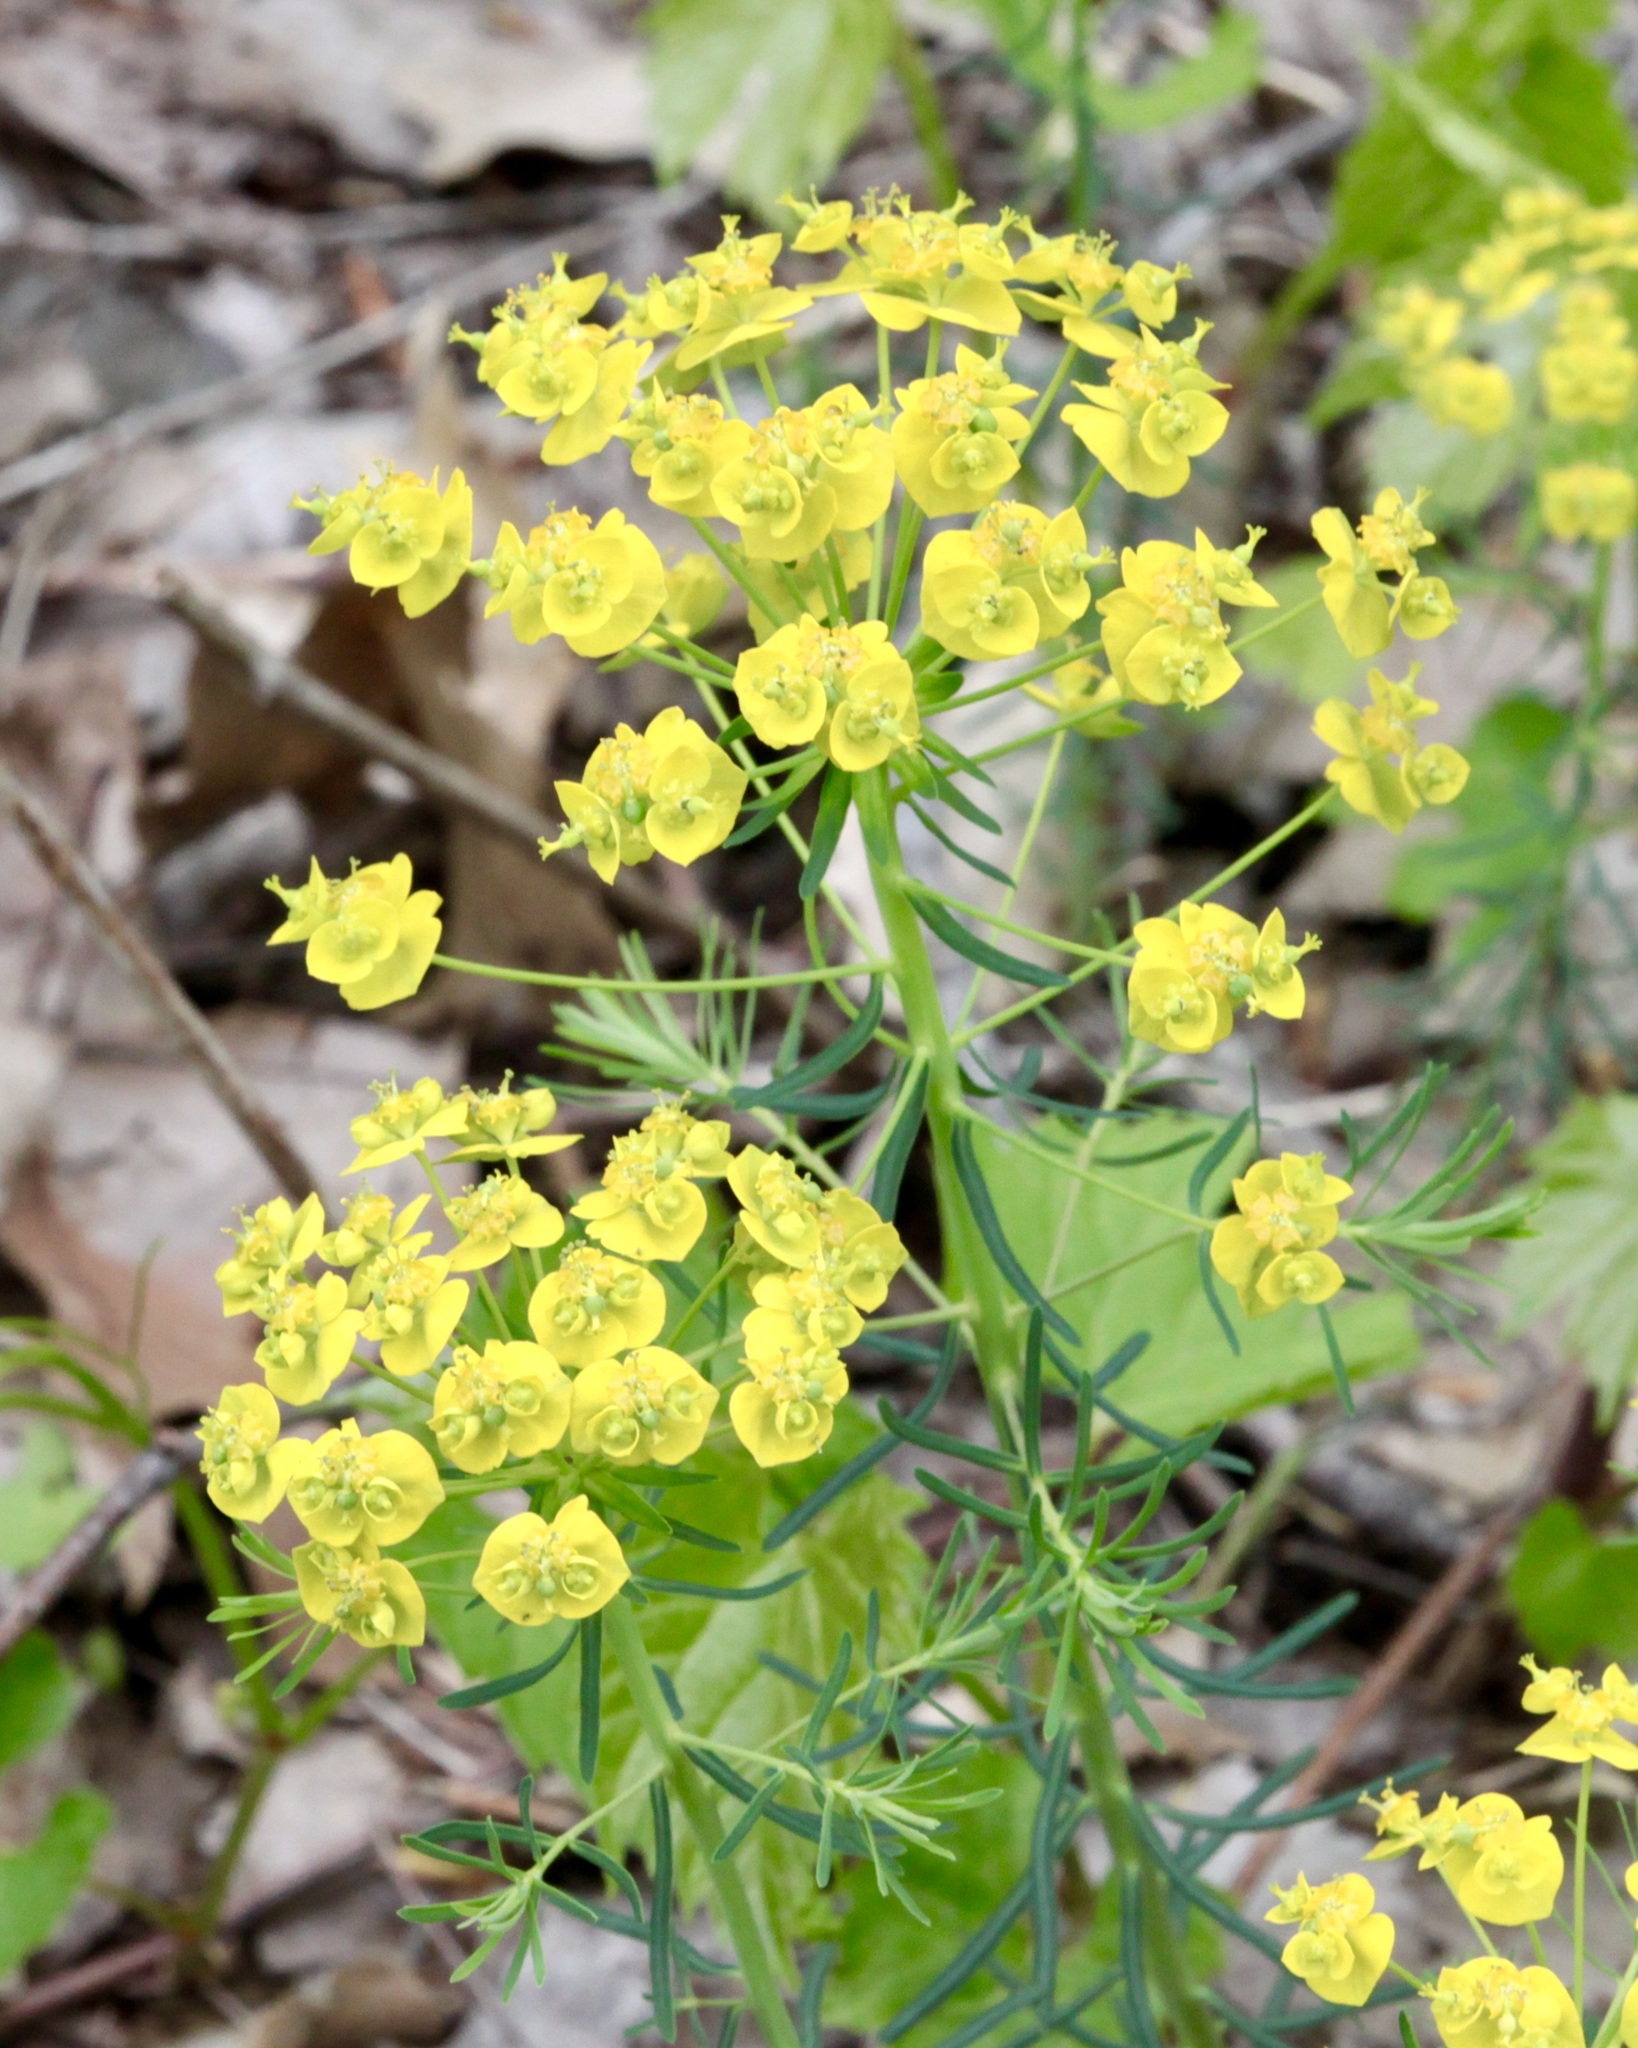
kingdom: Plantae
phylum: Tracheophyta
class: Magnoliopsida
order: Malpighiales
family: Euphorbiaceae
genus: Euphorbia
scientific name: Euphorbia cyparissias
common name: Cypress spurge
